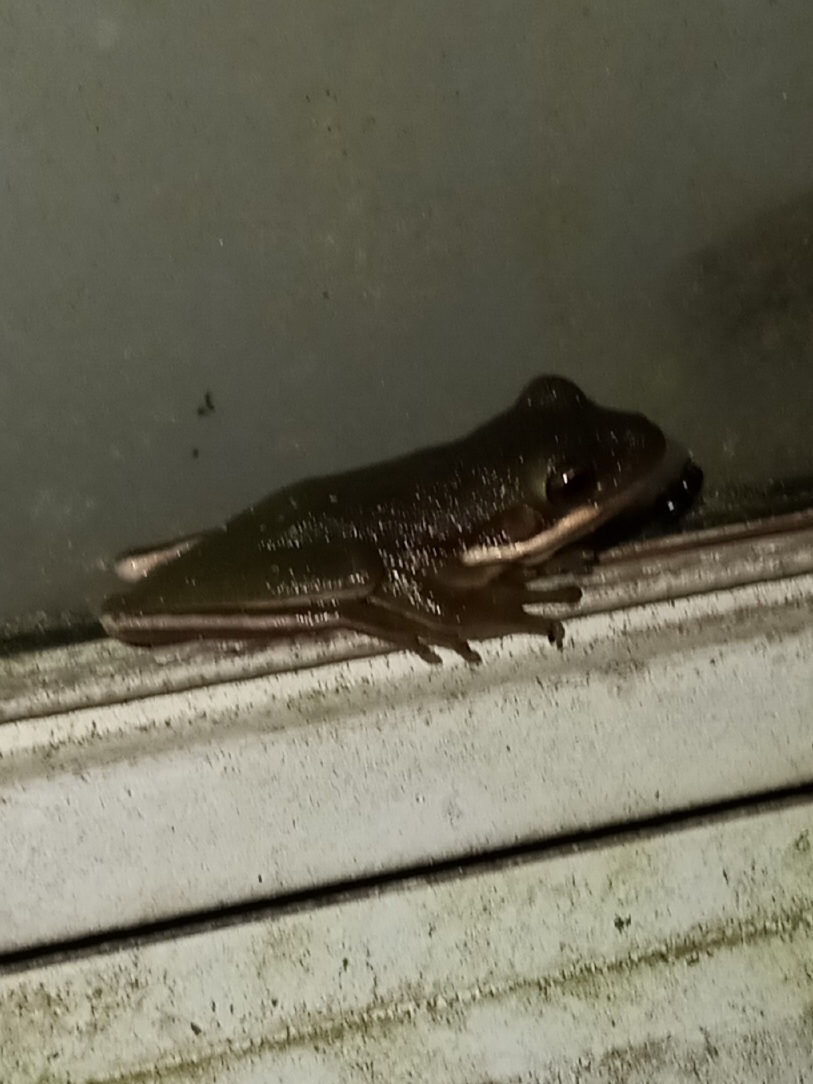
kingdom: Animalia
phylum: Chordata
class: Amphibia
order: Anura
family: Hylidae
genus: Dryophytes
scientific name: Dryophytes cinereus
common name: Green treefrog
